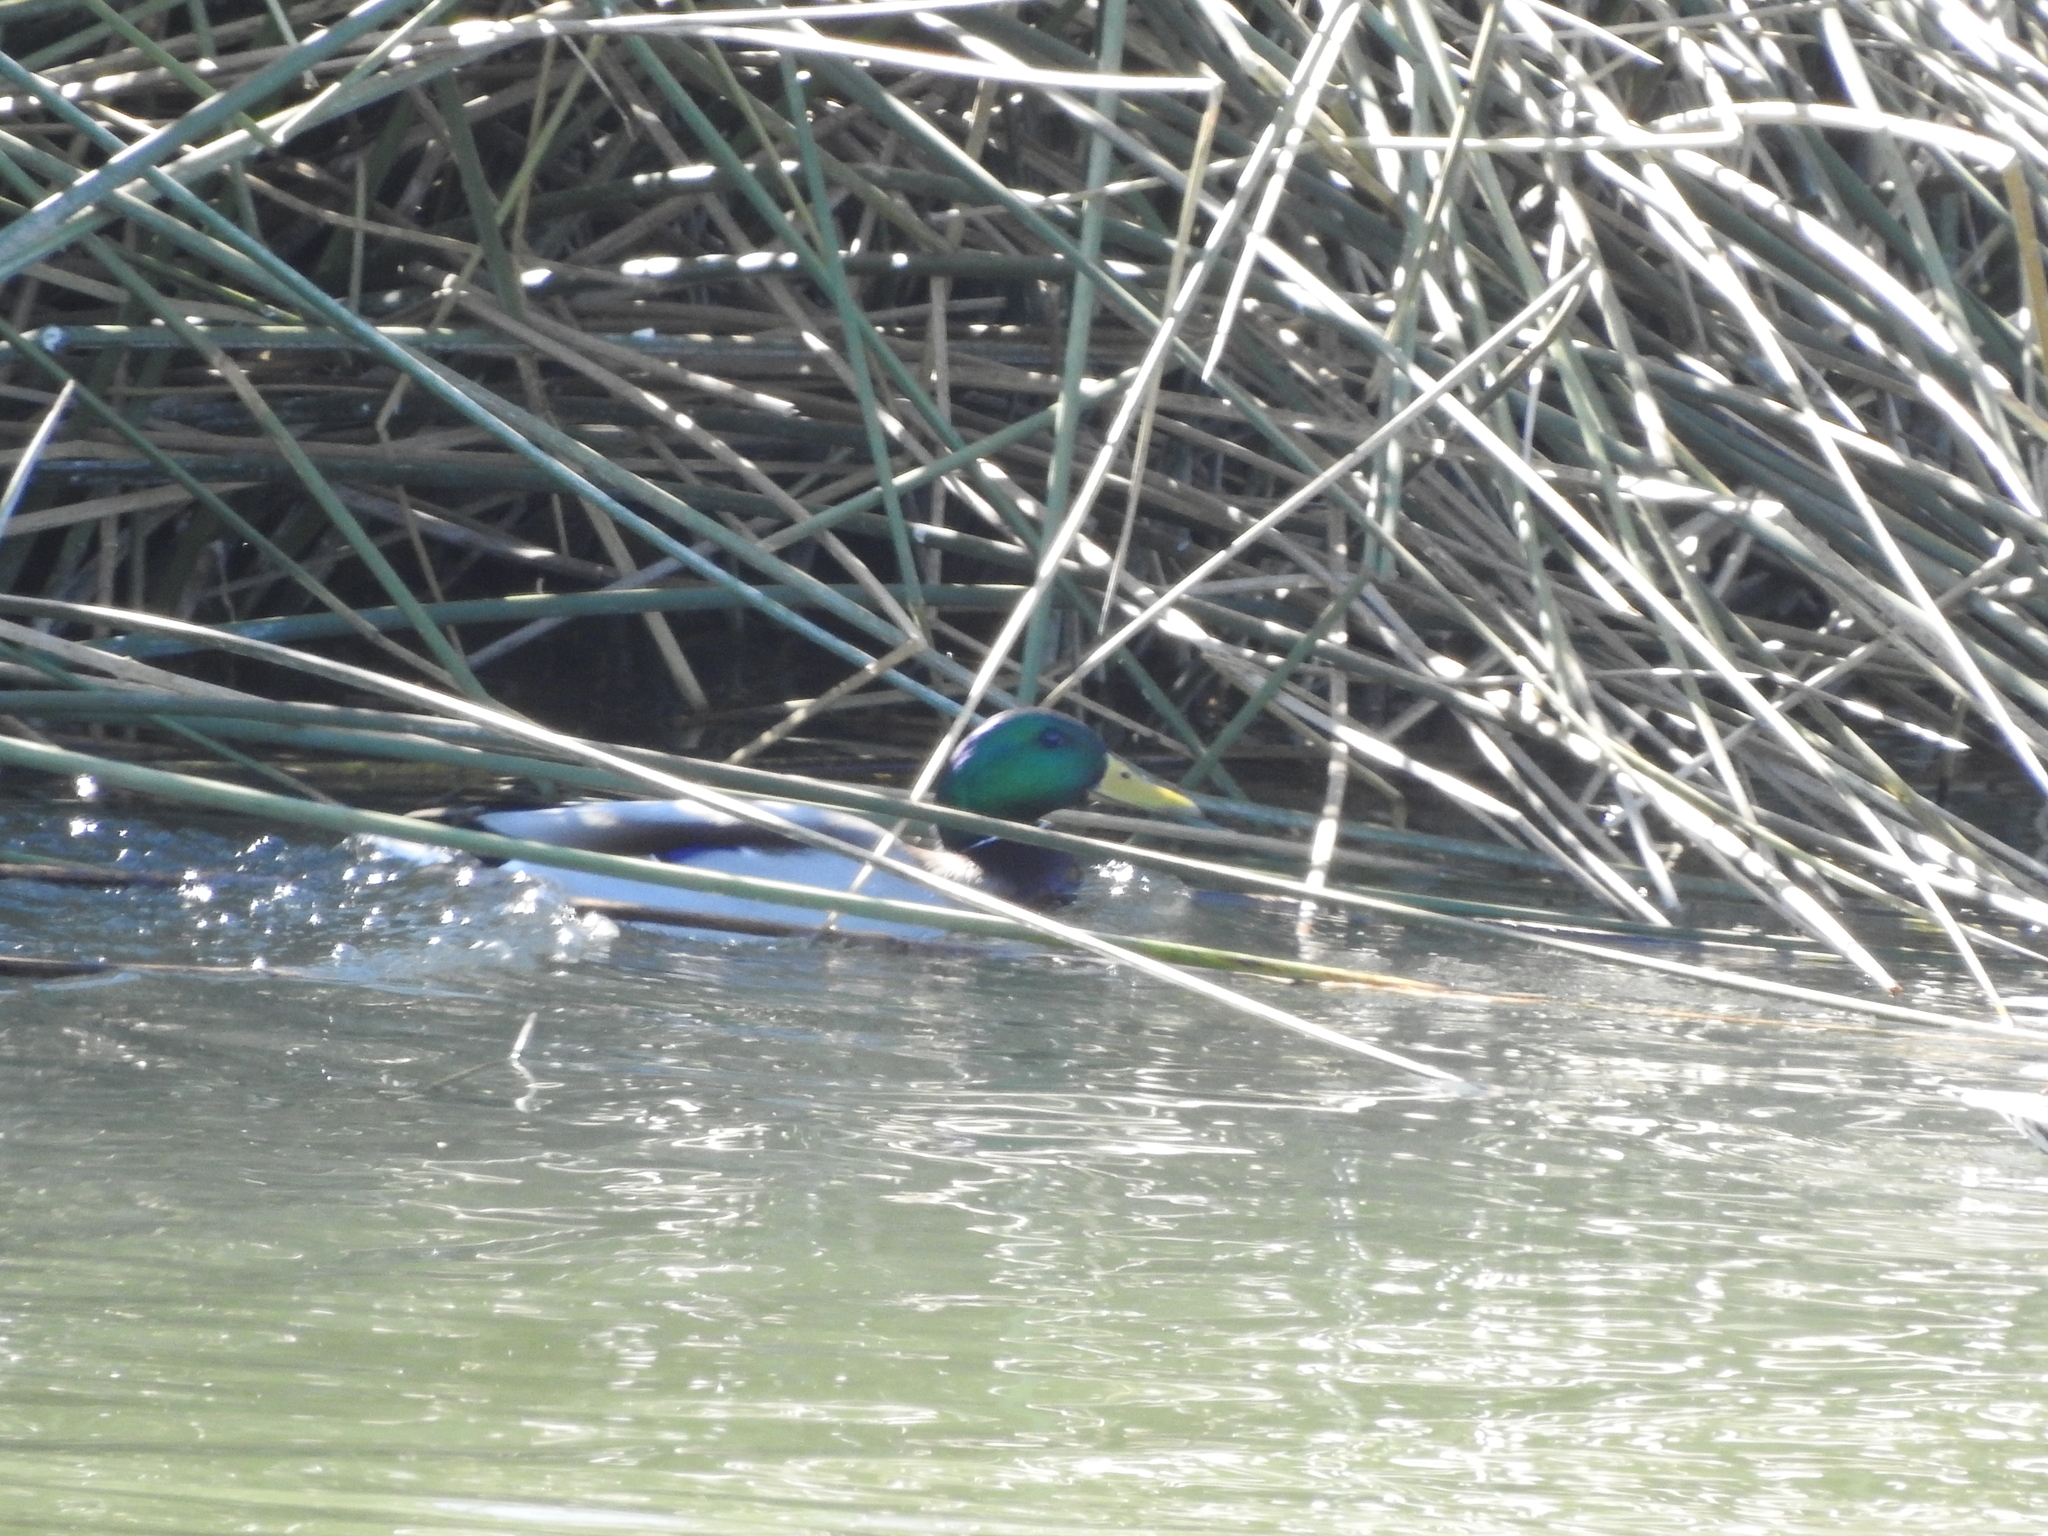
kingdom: Animalia
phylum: Chordata
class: Aves
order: Anseriformes
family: Anatidae
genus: Anas
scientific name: Anas platyrhynchos
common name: Mallard
